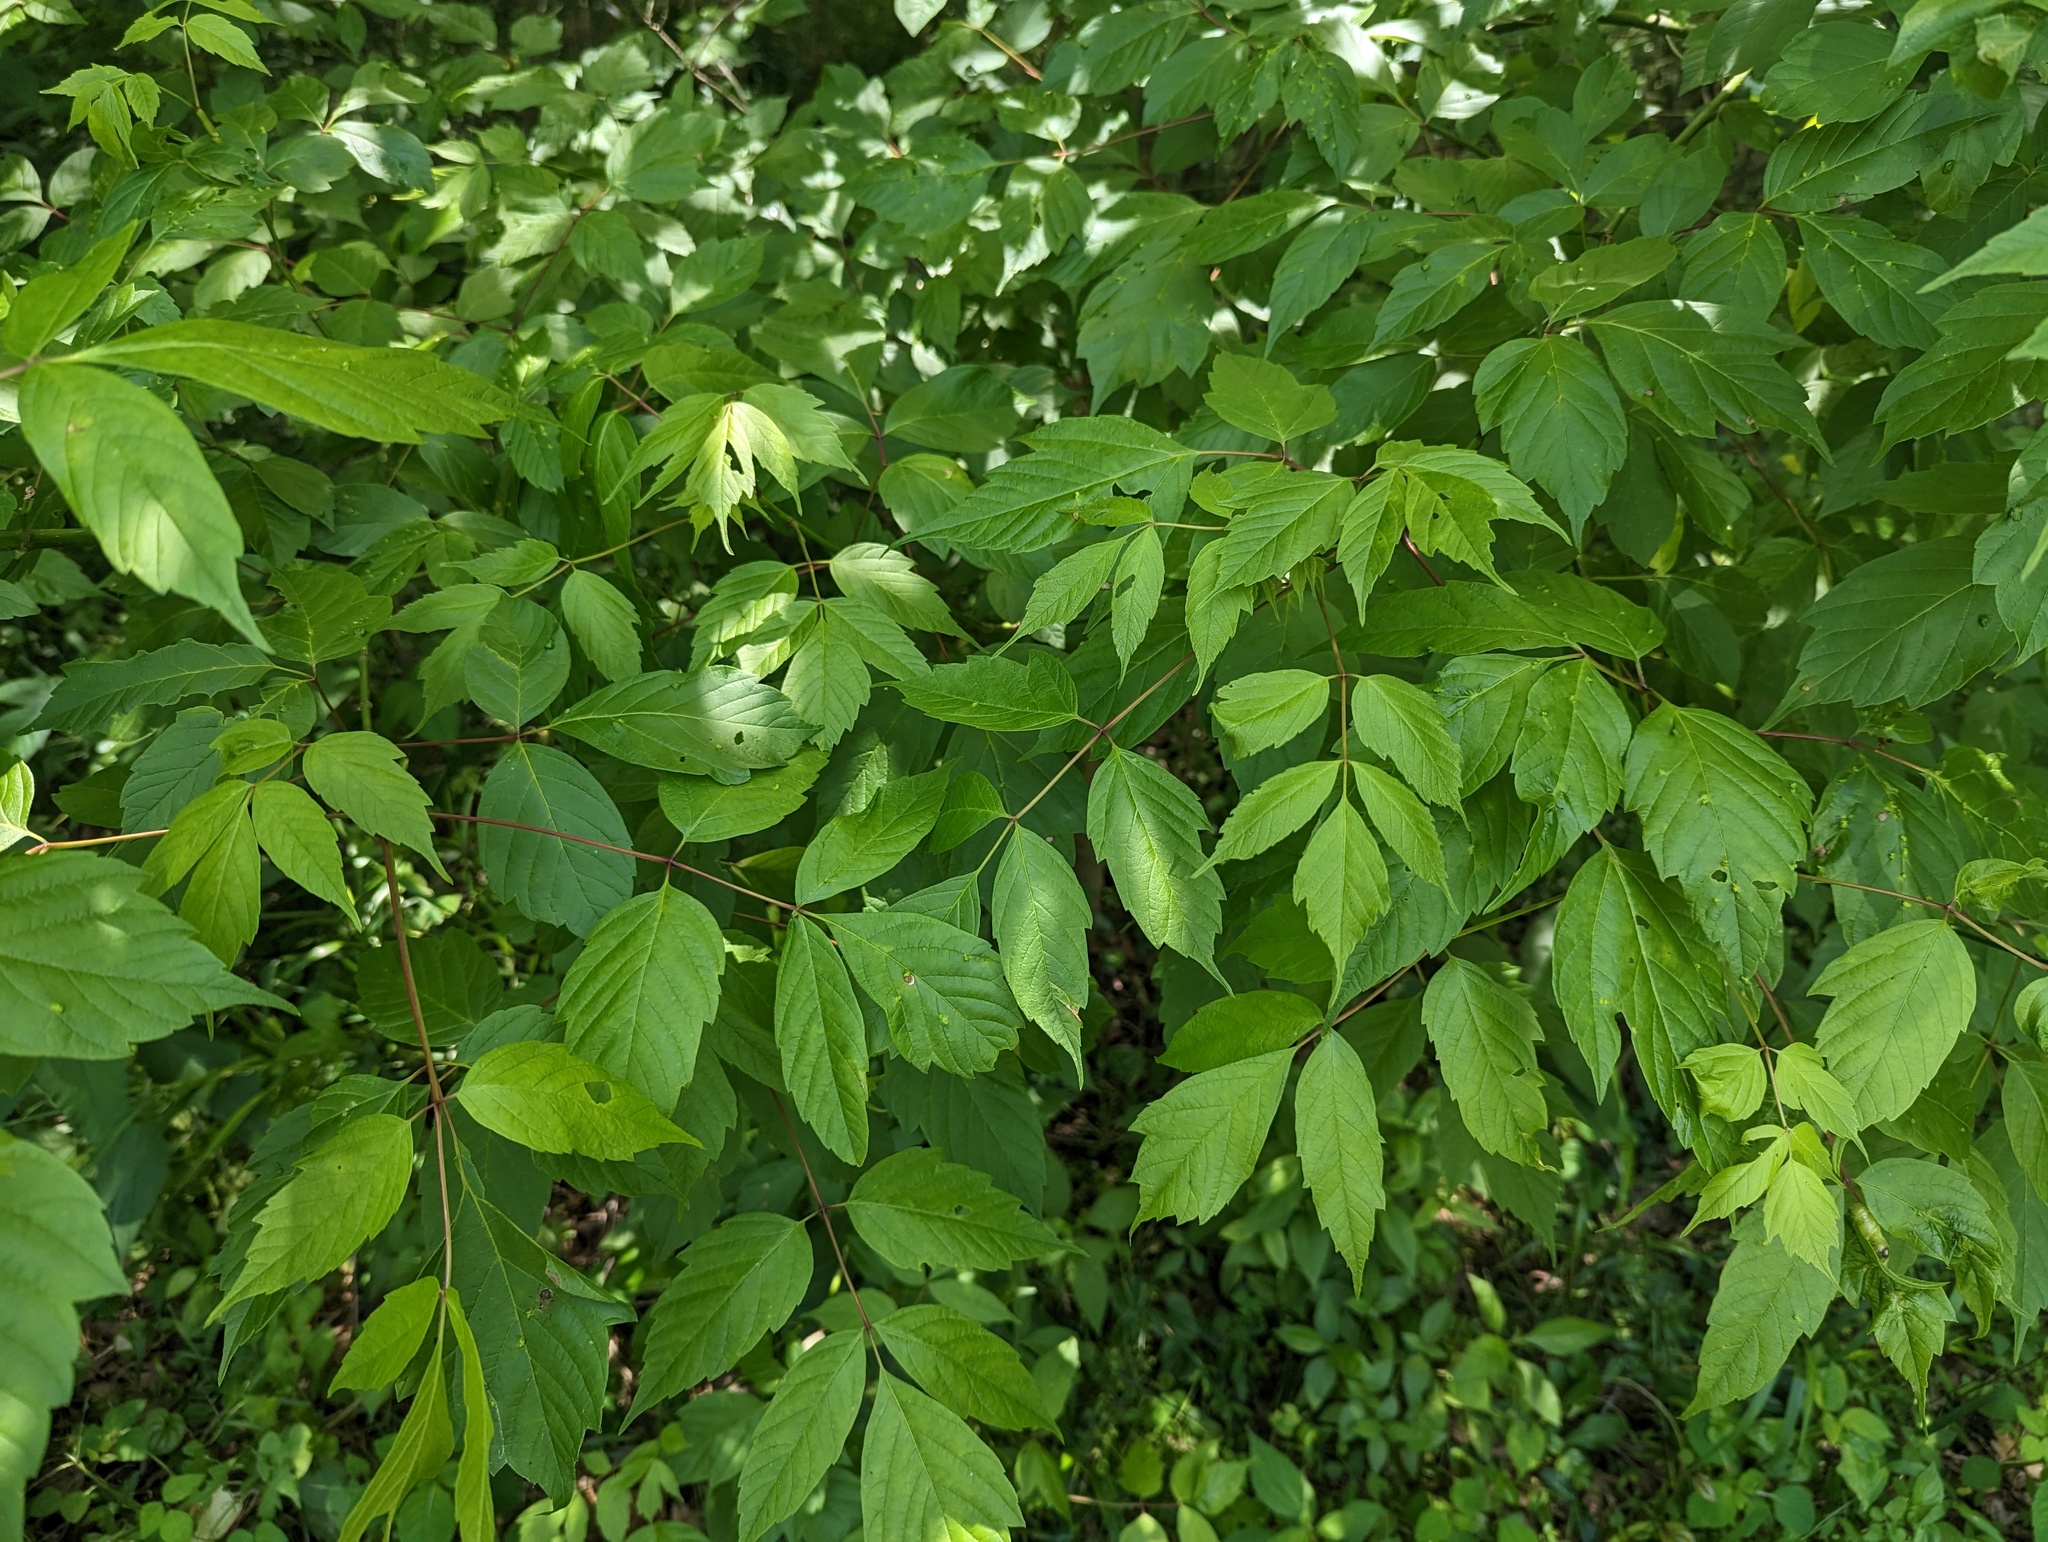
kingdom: Plantae
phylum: Tracheophyta
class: Magnoliopsida
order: Sapindales
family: Sapindaceae
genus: Acer
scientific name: Acer negundo
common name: Ashleaf maple
